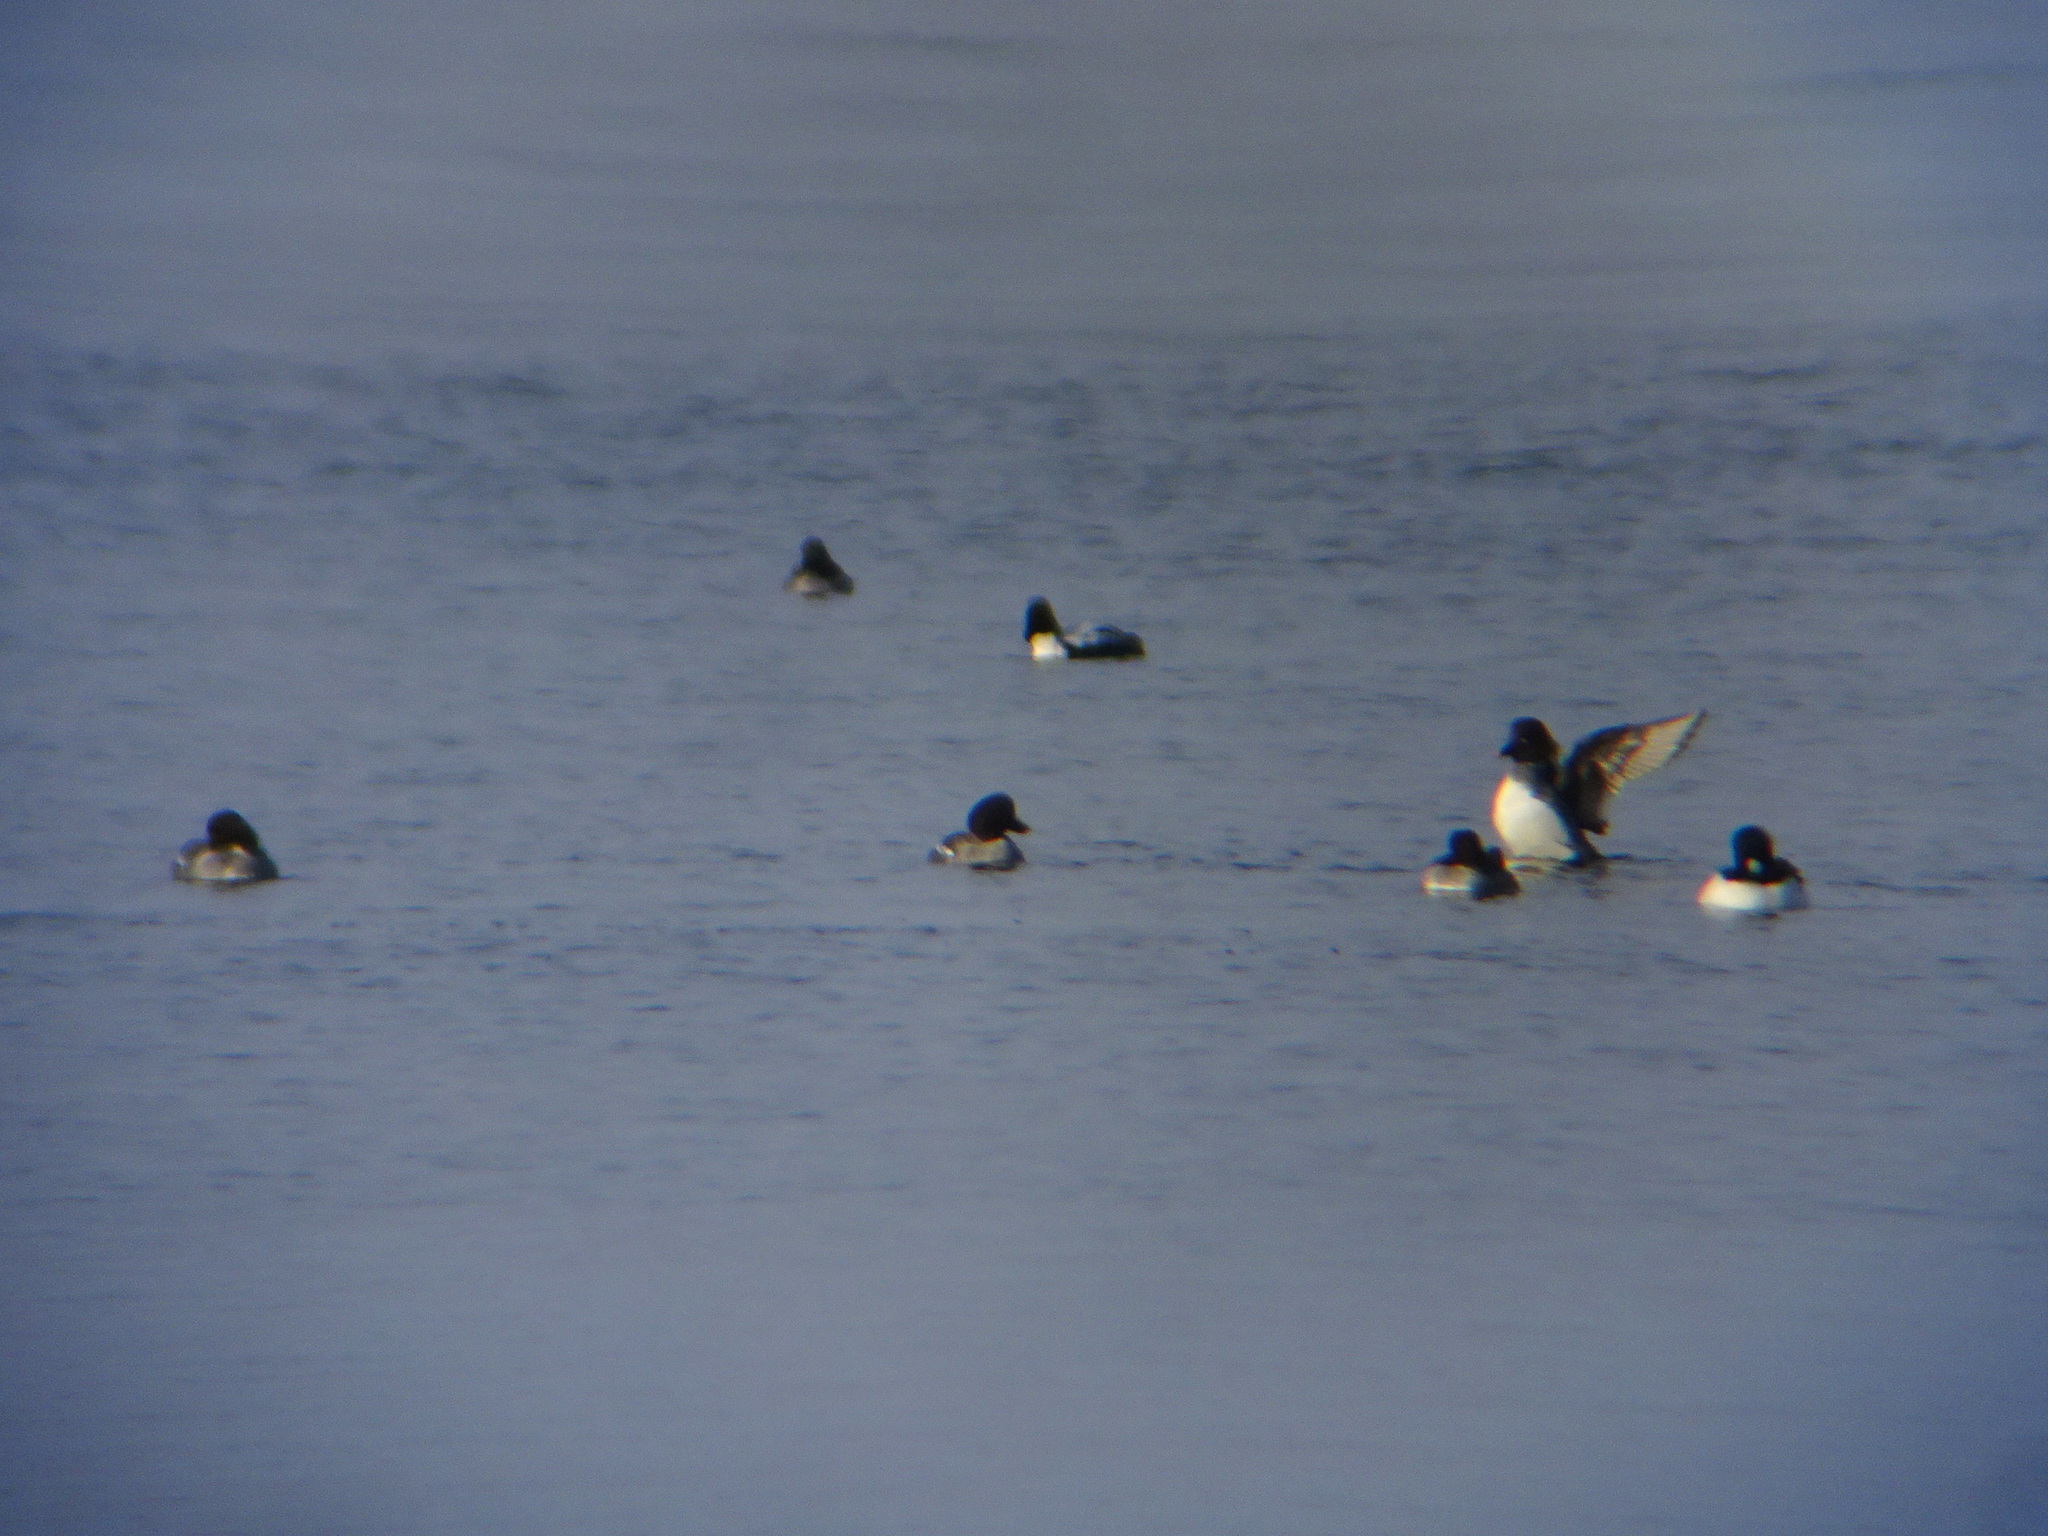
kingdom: Animalia
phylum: Chordata
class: Aves
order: Anseriformes
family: Anatidae
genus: Bucephala
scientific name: Bucephala clangula
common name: Common goldeneye
